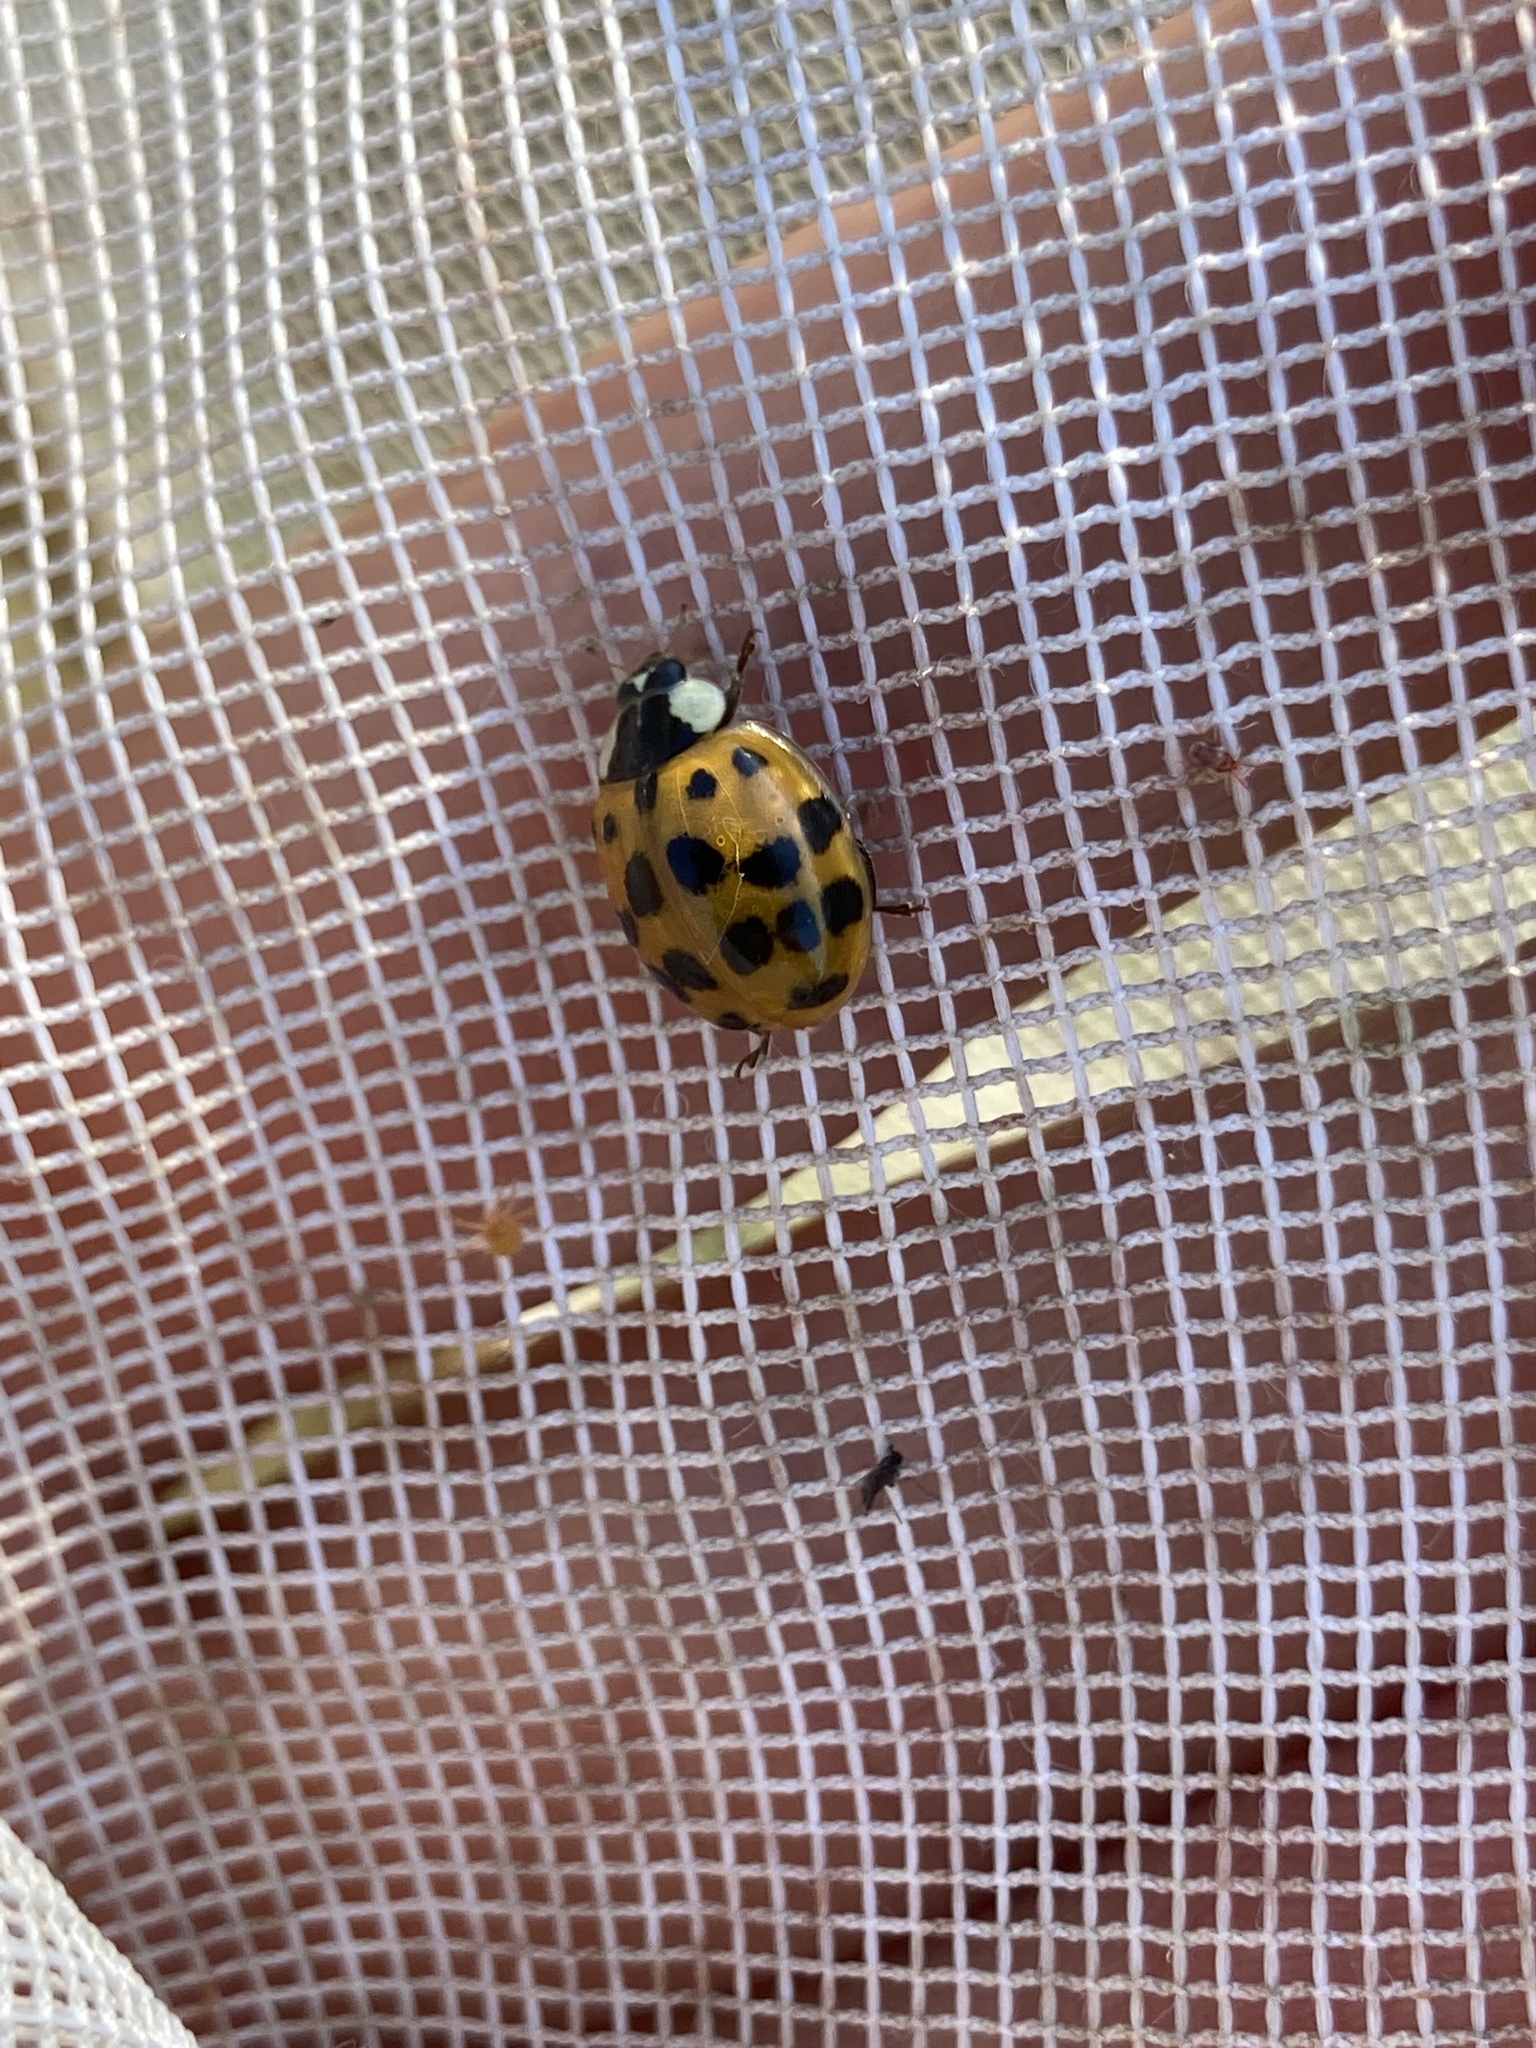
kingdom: Animalia
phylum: Arthropoda
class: Insecta
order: Coleoptera
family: Coccinellidae
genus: Harmonia
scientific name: Harmonia axyridis
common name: Harlequin ladybird
